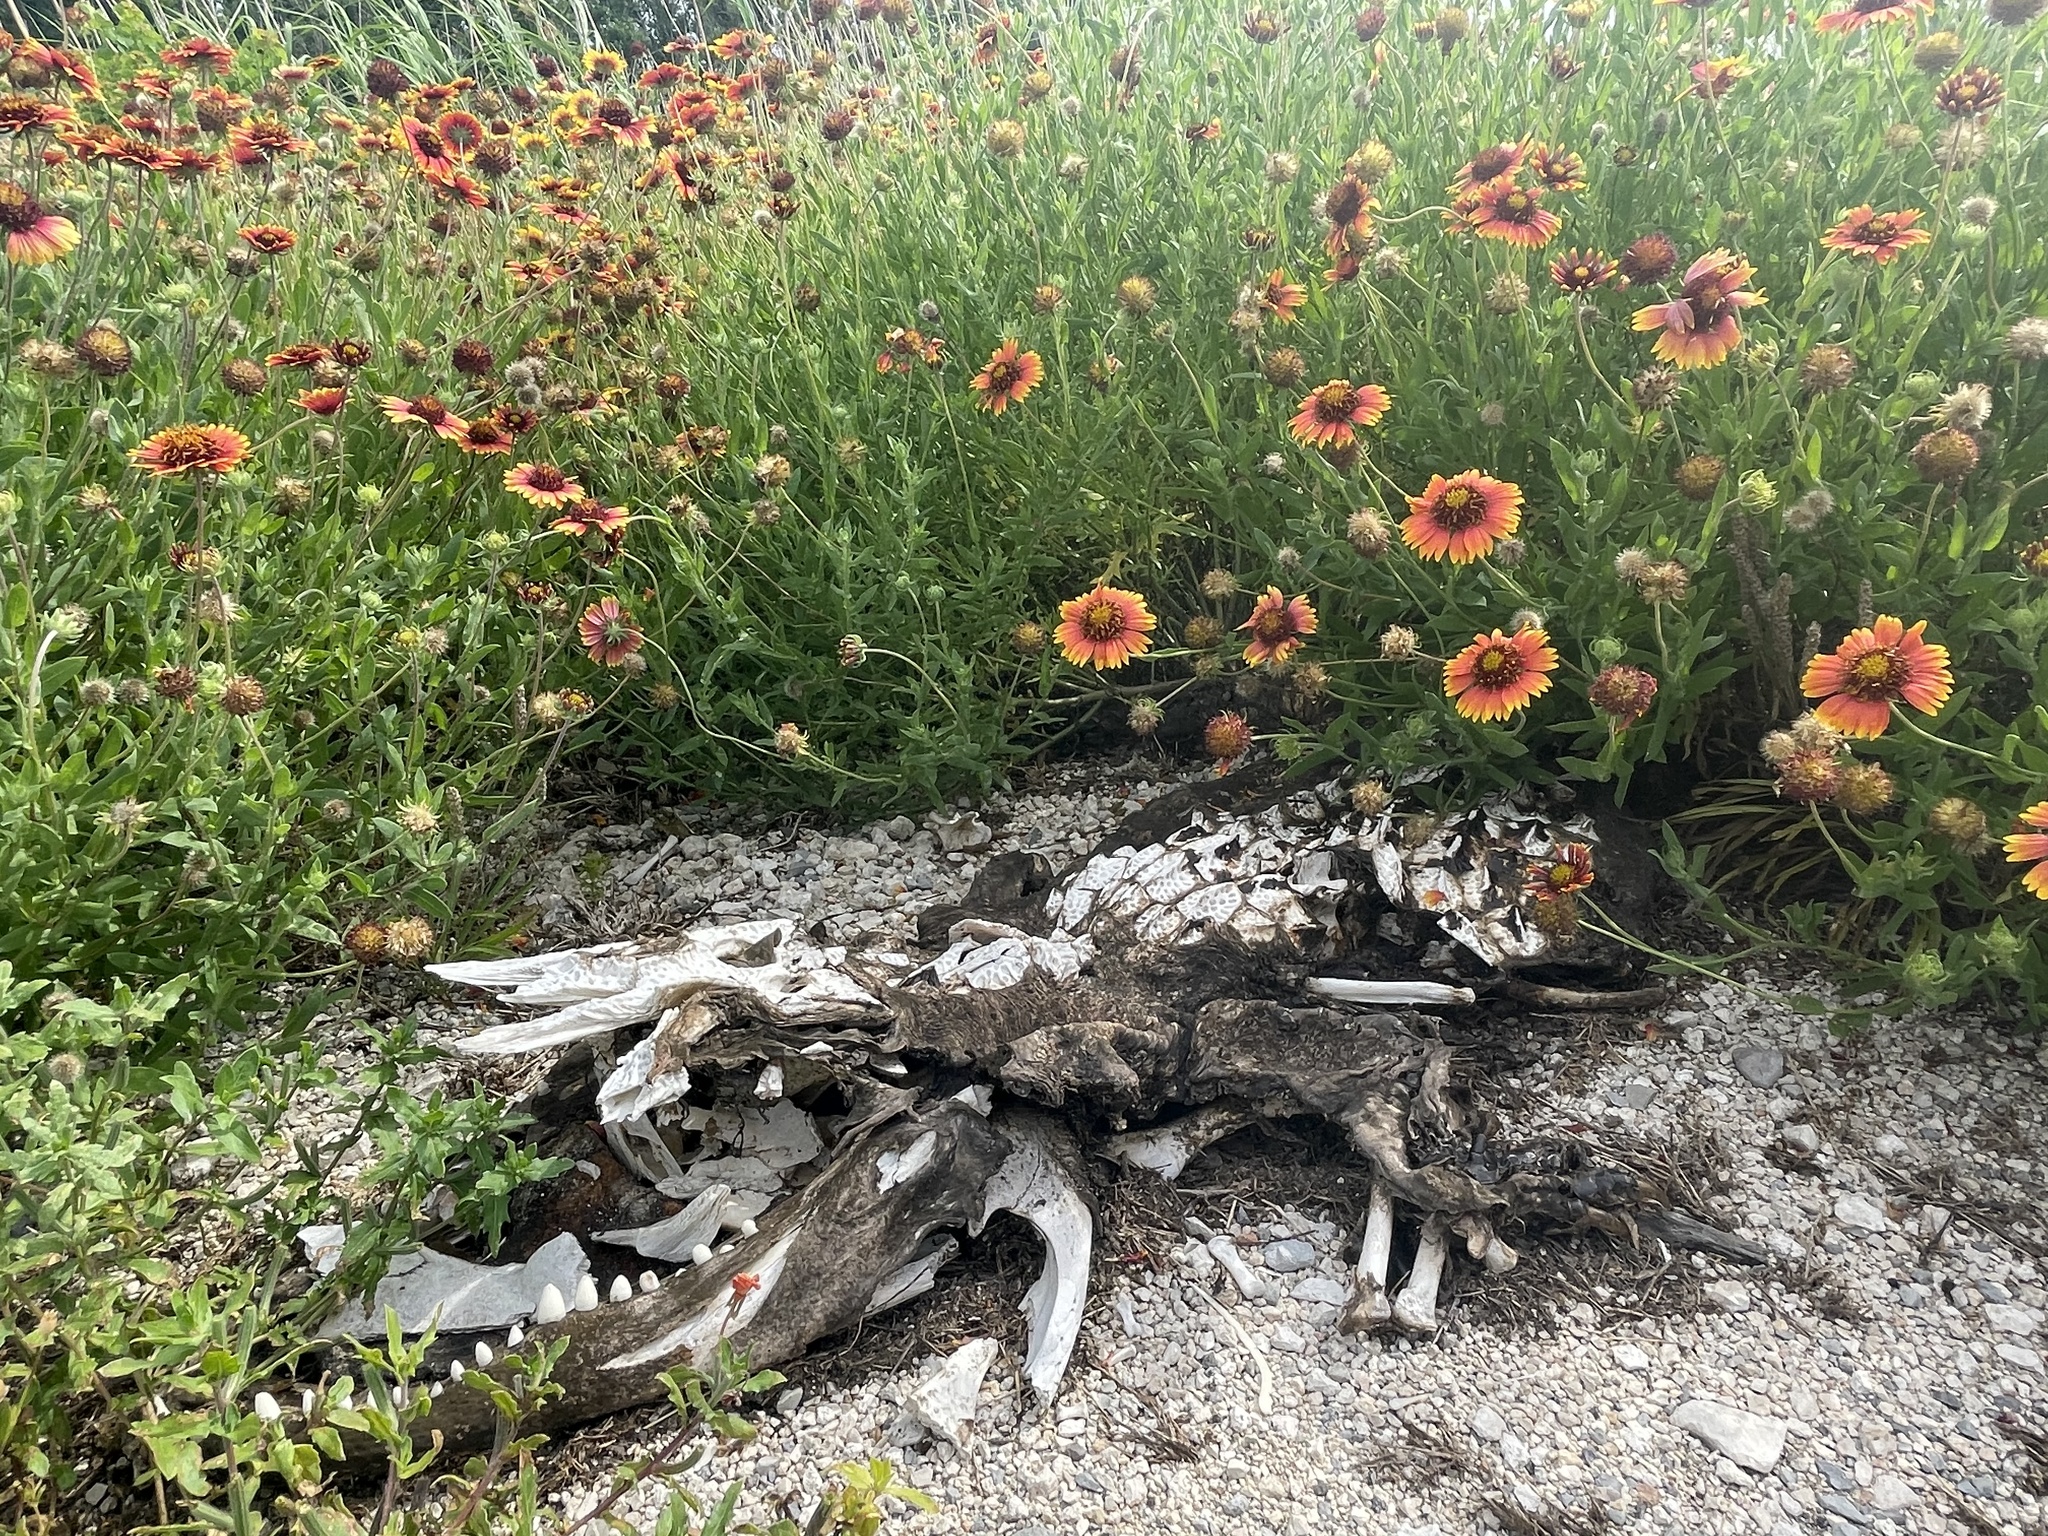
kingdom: Animalia
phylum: Chordata
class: Crocodylia
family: Alligatoridae
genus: Alligator
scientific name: Alligator mississippiensis
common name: American alligator
